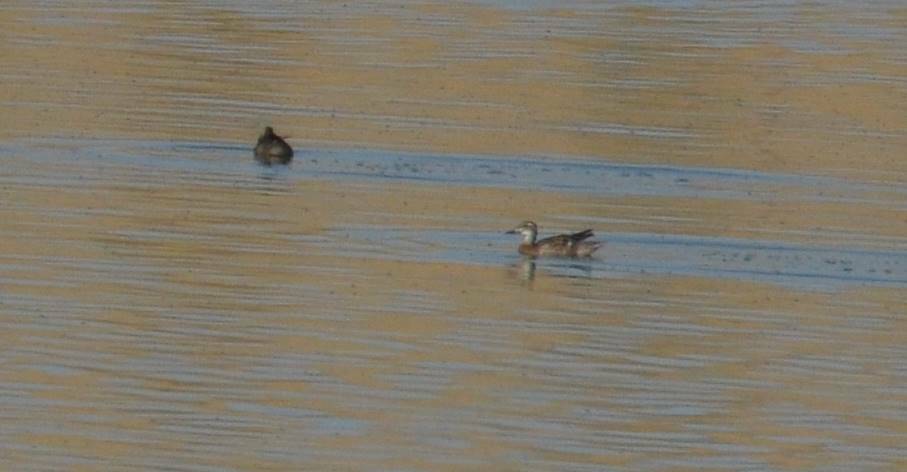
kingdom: Animalia
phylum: Chordata
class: Aves
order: Anseriformes
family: Anatidae
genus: Spatula
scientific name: Spatula querquedula
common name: Garganey
